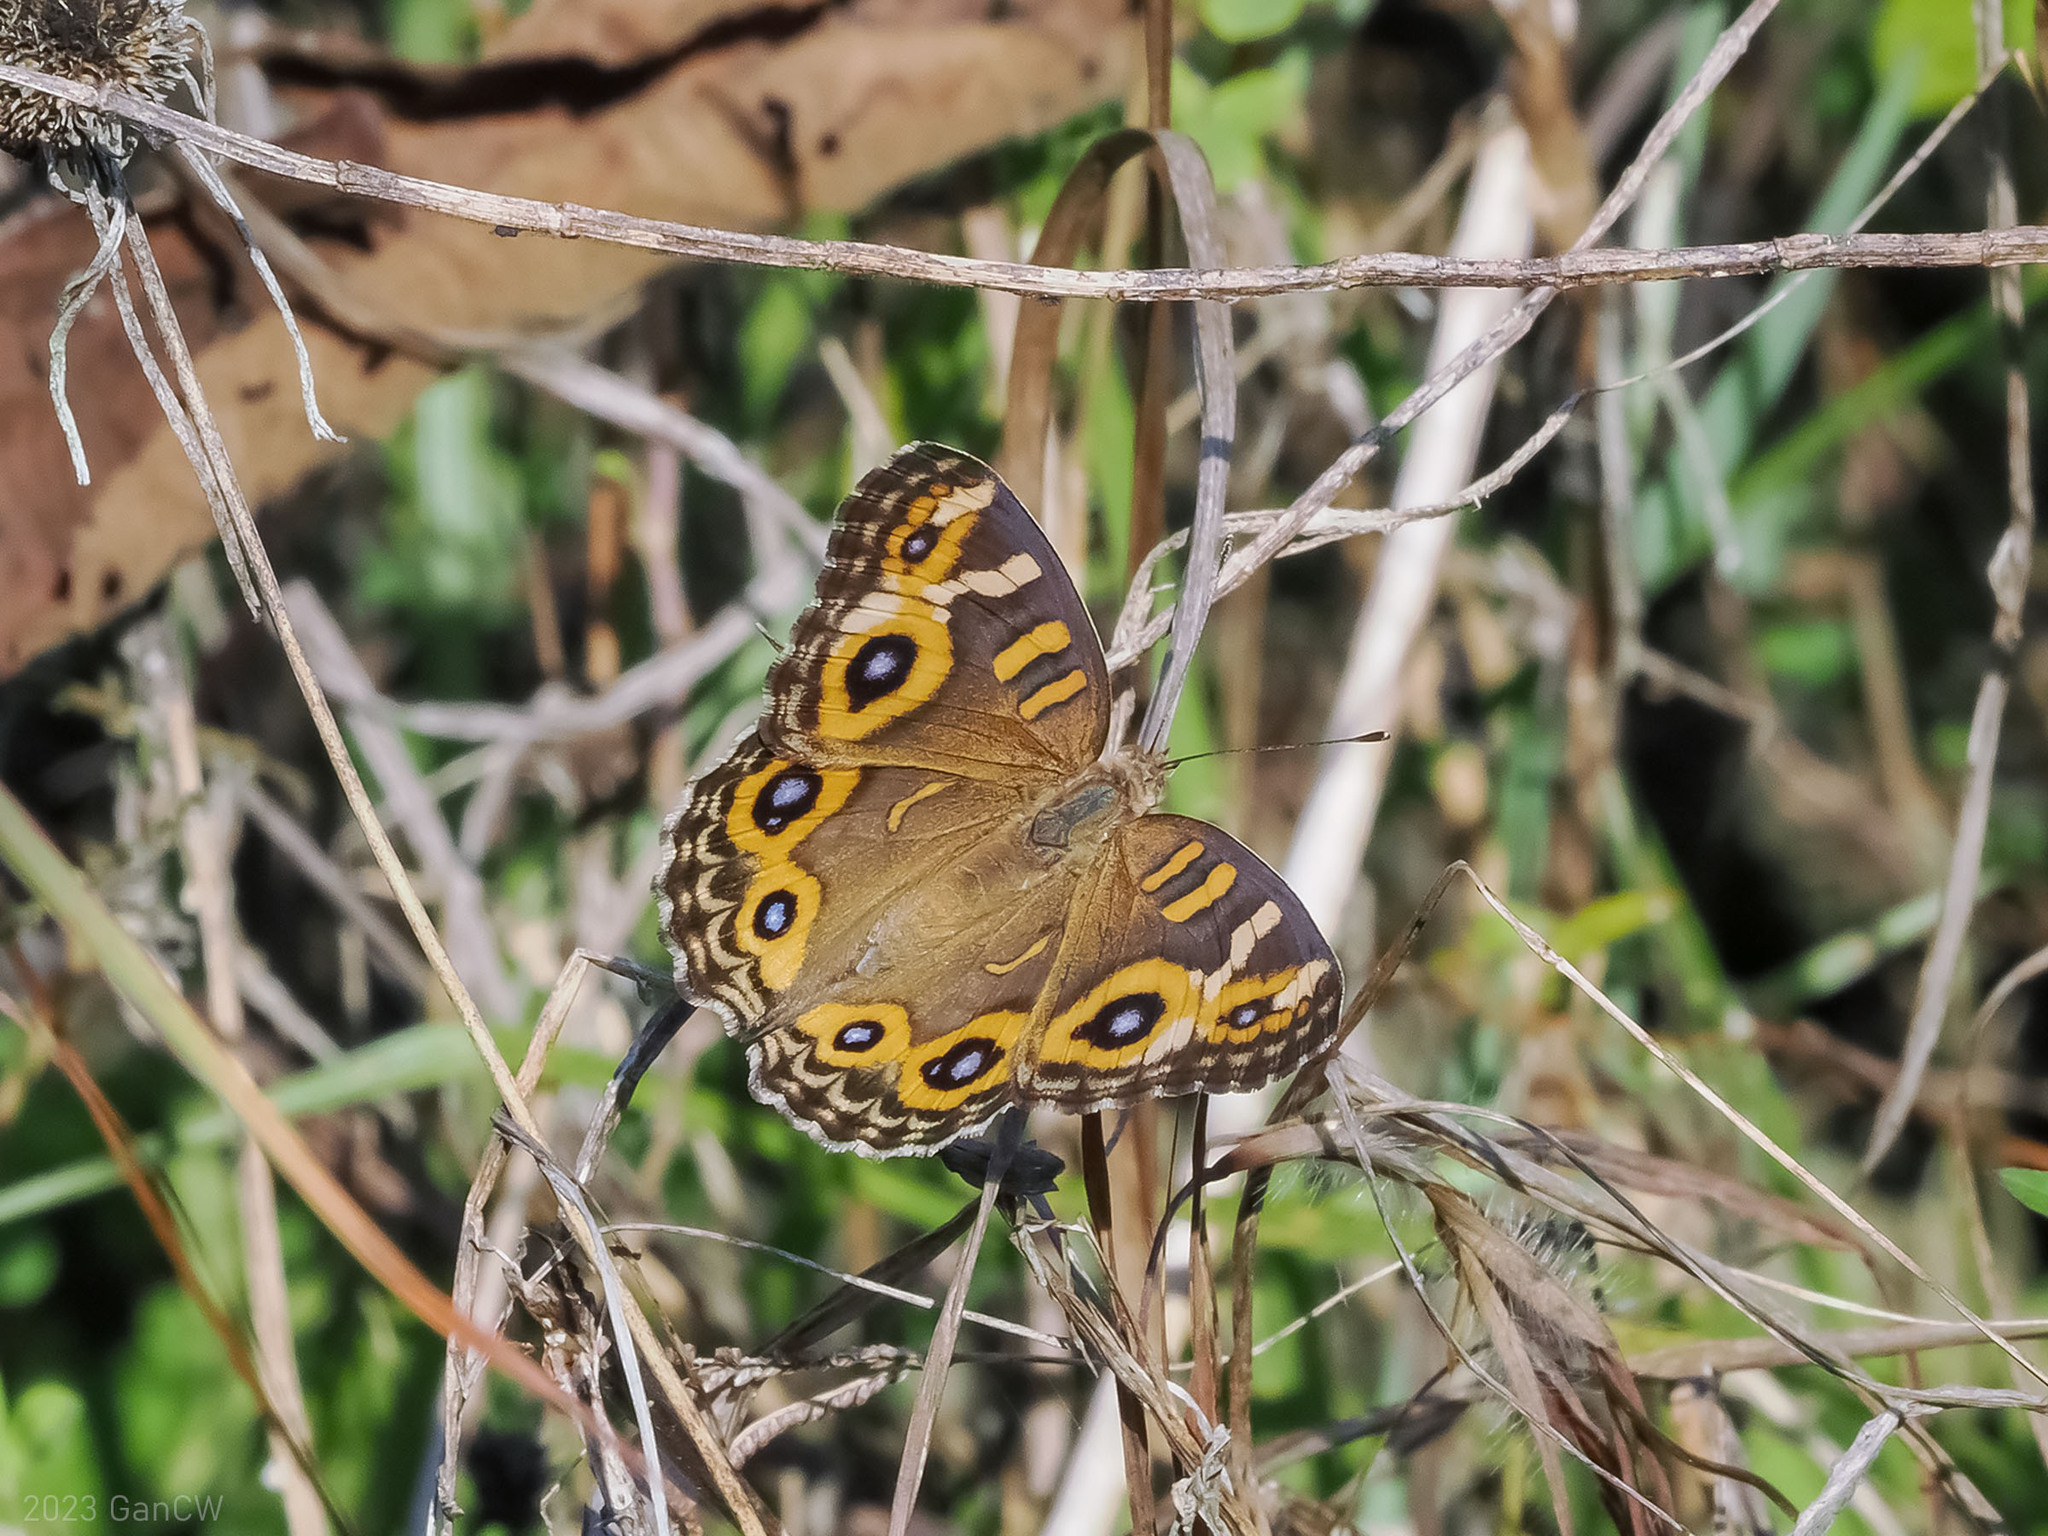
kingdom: Animalia
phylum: Arthropoda
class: Insecta
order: Lepidoptera
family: Nymphalidae
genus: Junonia
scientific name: Junonia villida
